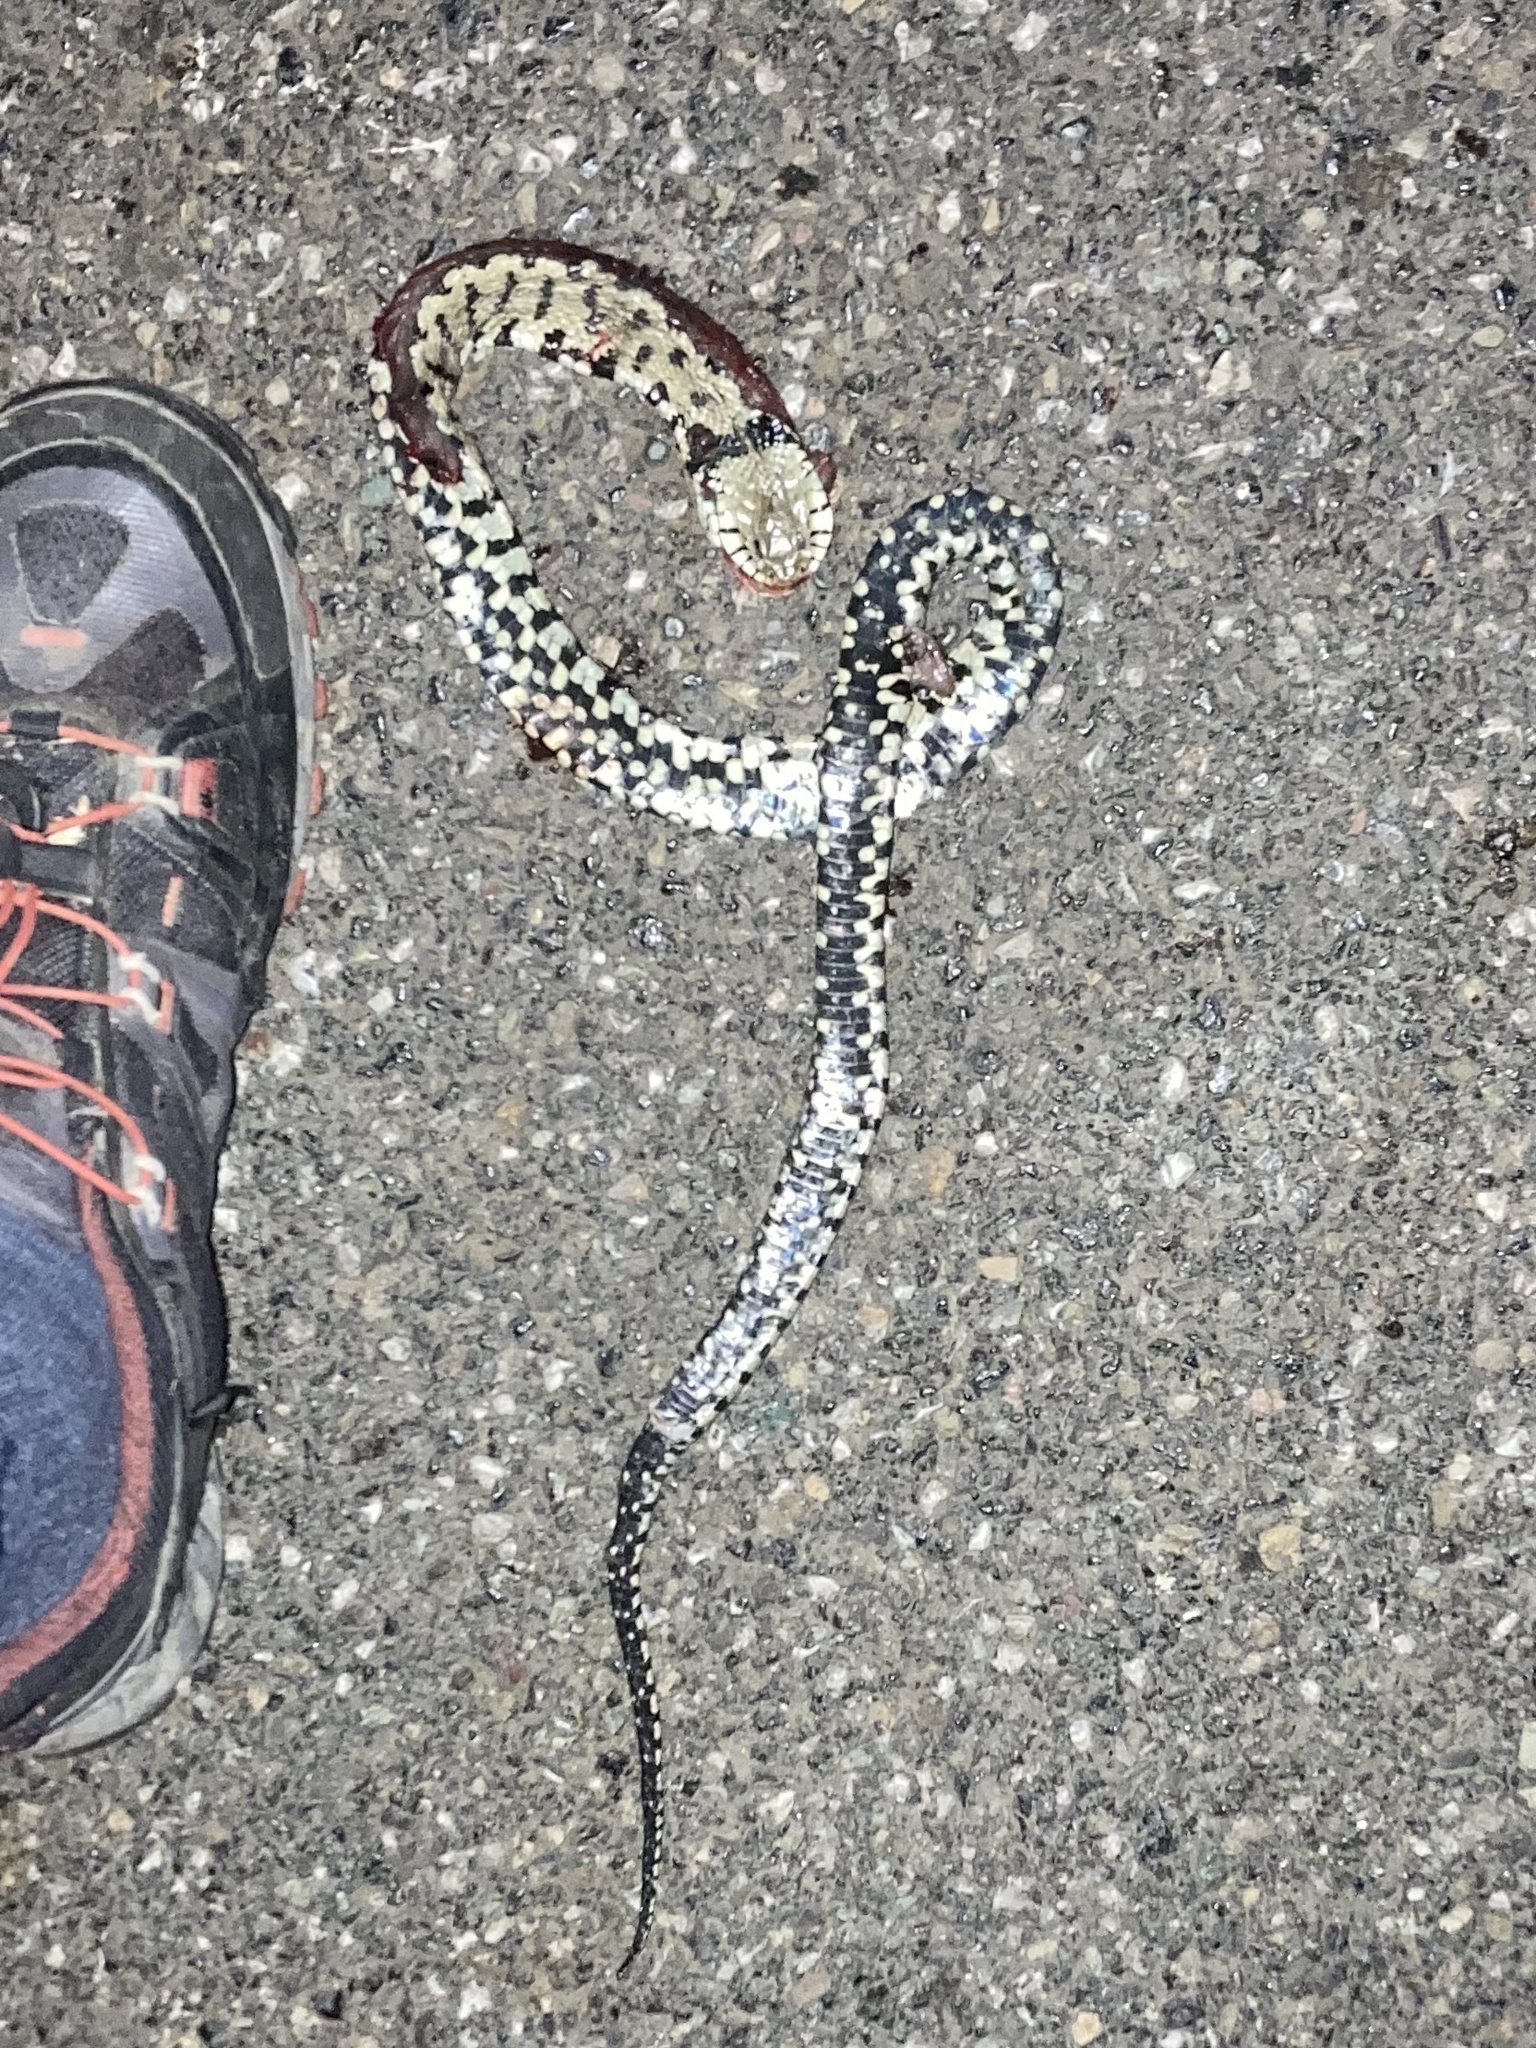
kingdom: Animalia
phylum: Chordata
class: Squamata
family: Colubridae
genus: Natrix
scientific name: Natrix helvetica
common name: Banded grass snake
